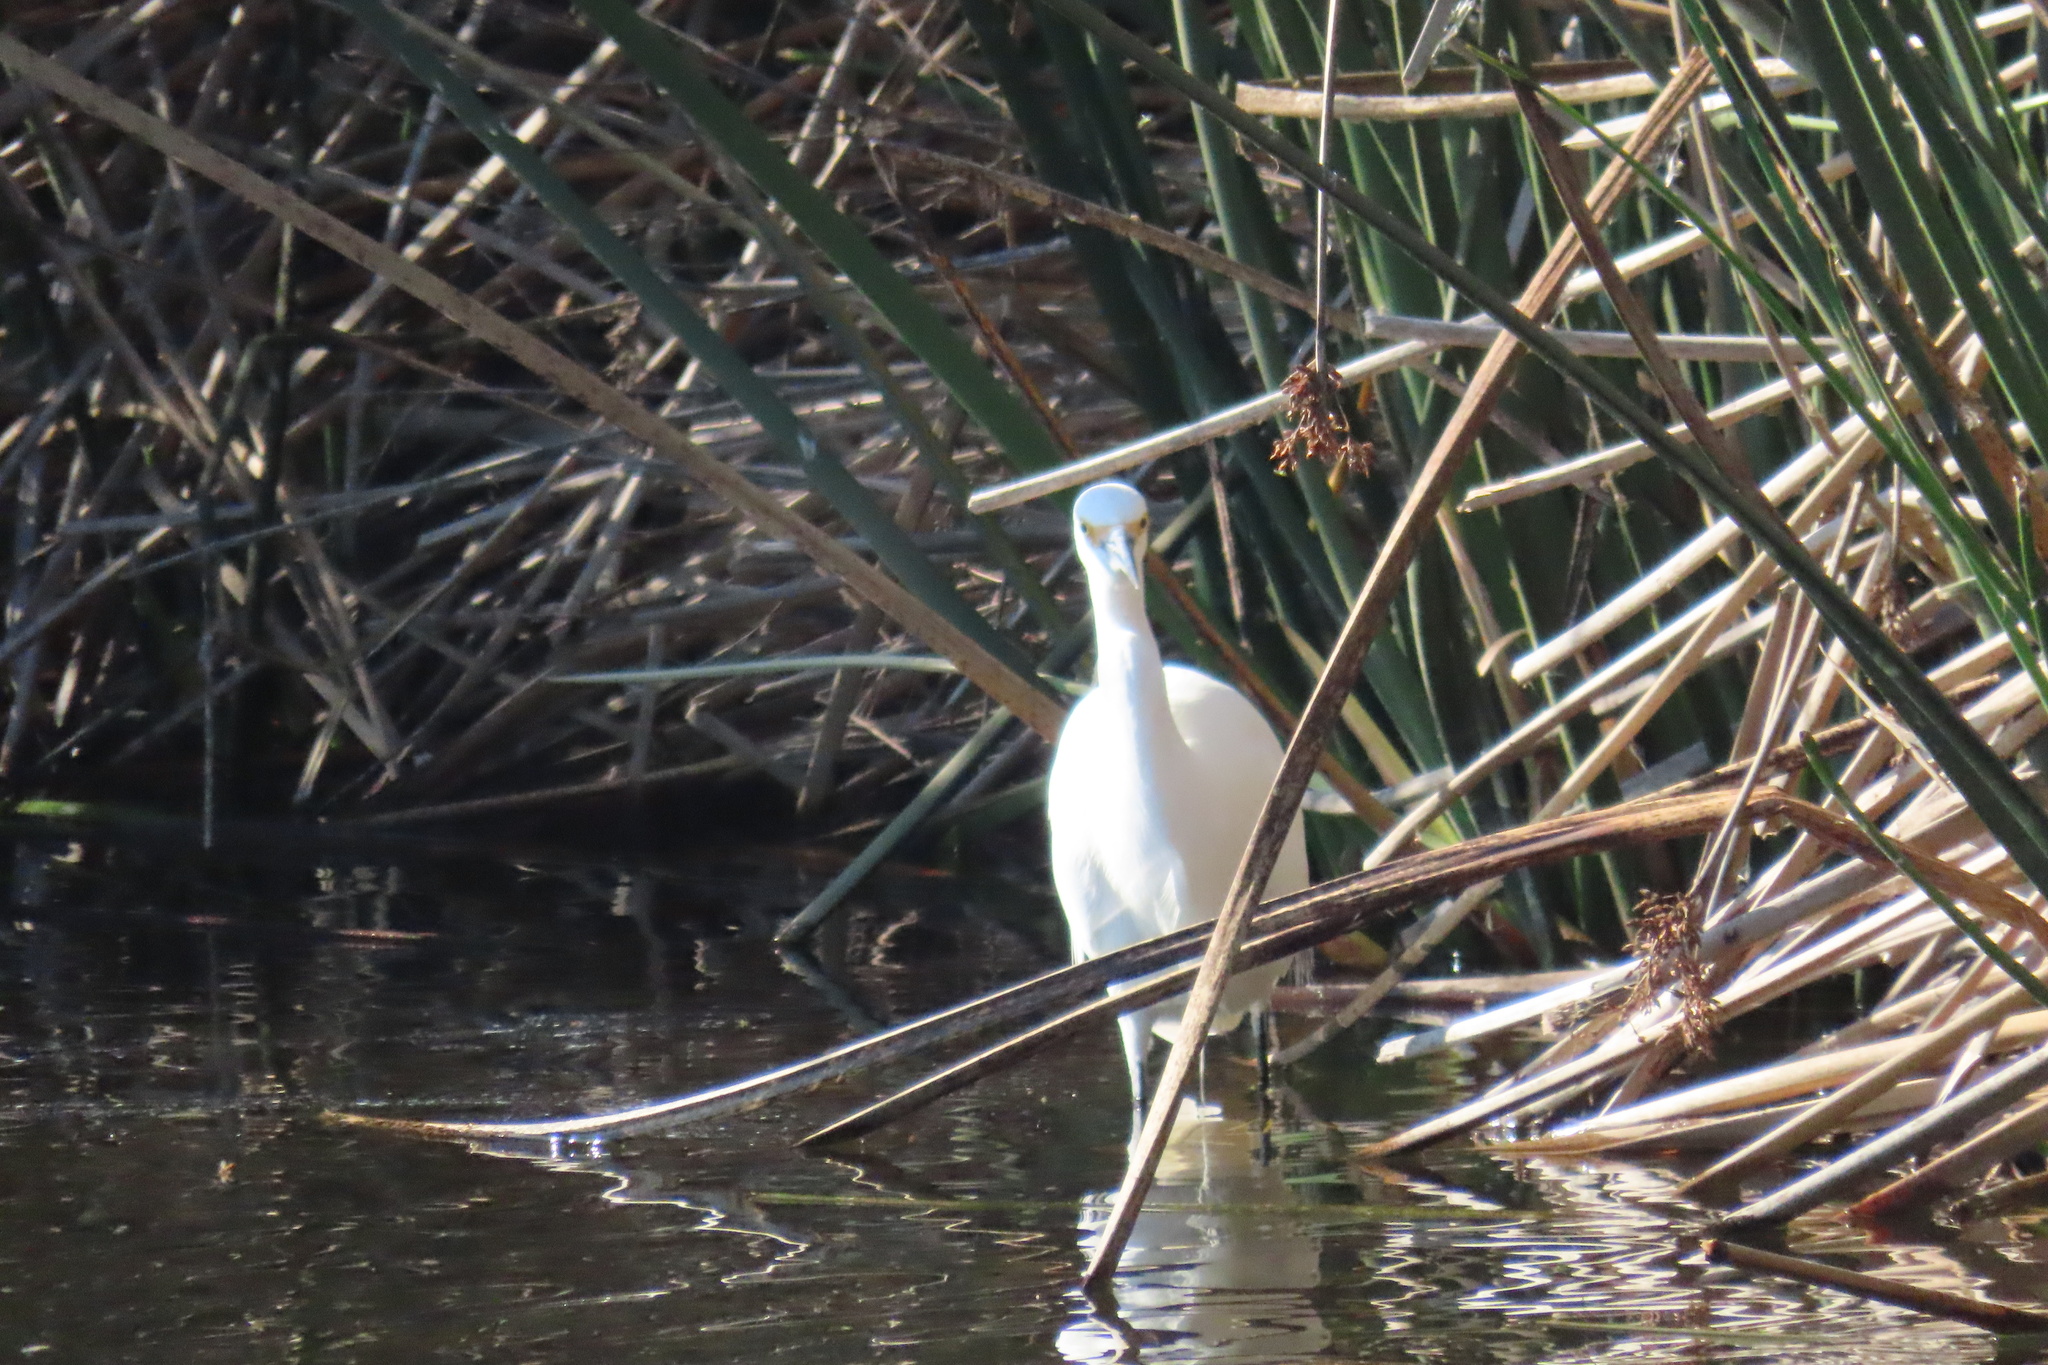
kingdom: Animalia
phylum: Chordata
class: Aves
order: Pelecaniformes
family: Ardeidae
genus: Egretta
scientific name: Egretta thula
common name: Snowy egret
